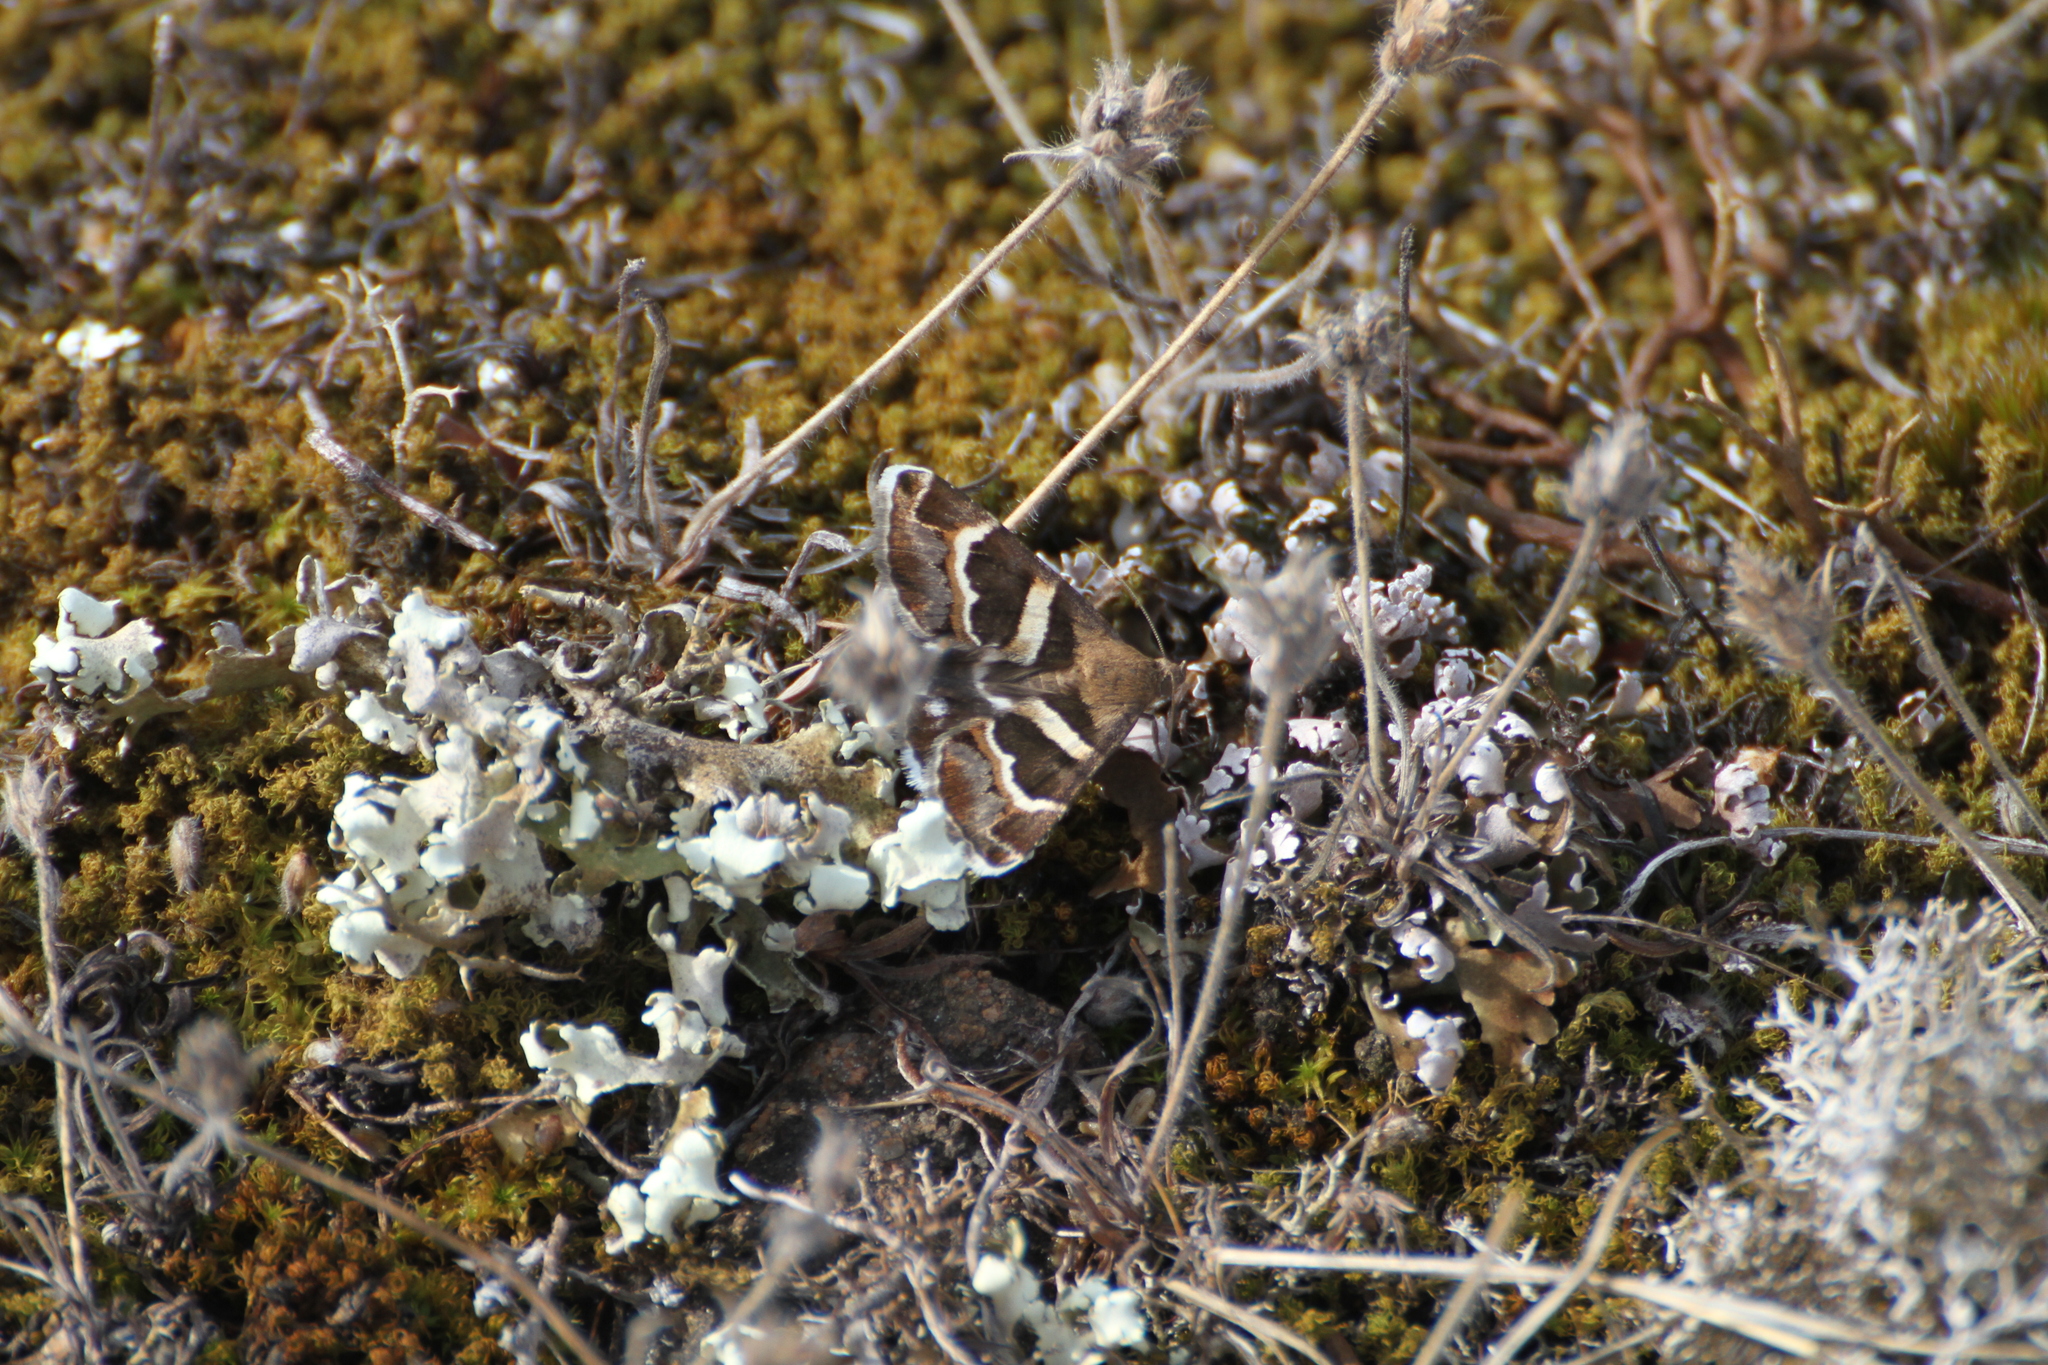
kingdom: Animalia
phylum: Arthropoda
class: Insecta
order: Lepidoptera
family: Erebidae
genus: Grammodes
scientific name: Grammodes stolida
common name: Geometrician
